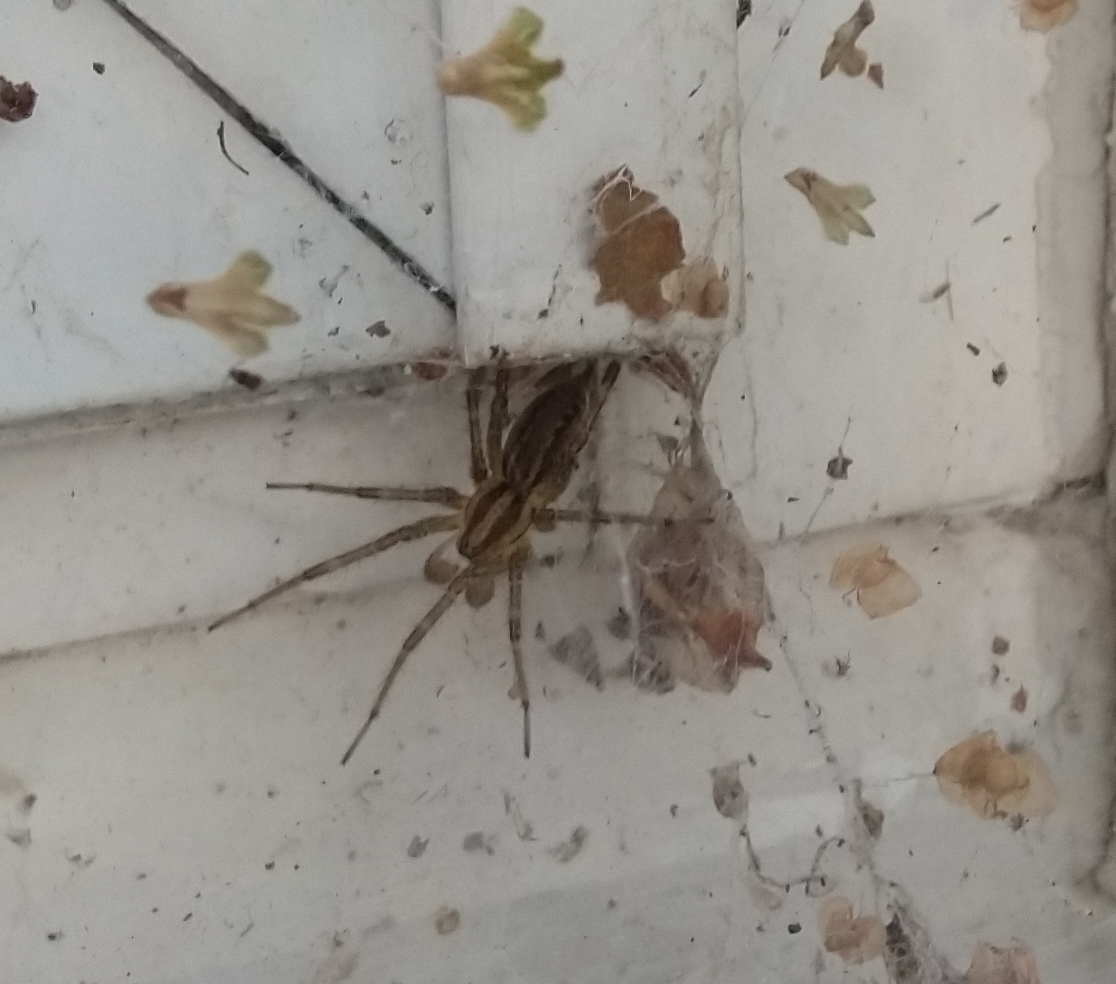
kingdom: Animalia
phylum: Arthropoda
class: Arachnida
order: Araneae
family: Agelenidae
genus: Agelenopsis
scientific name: Agelenopsis
